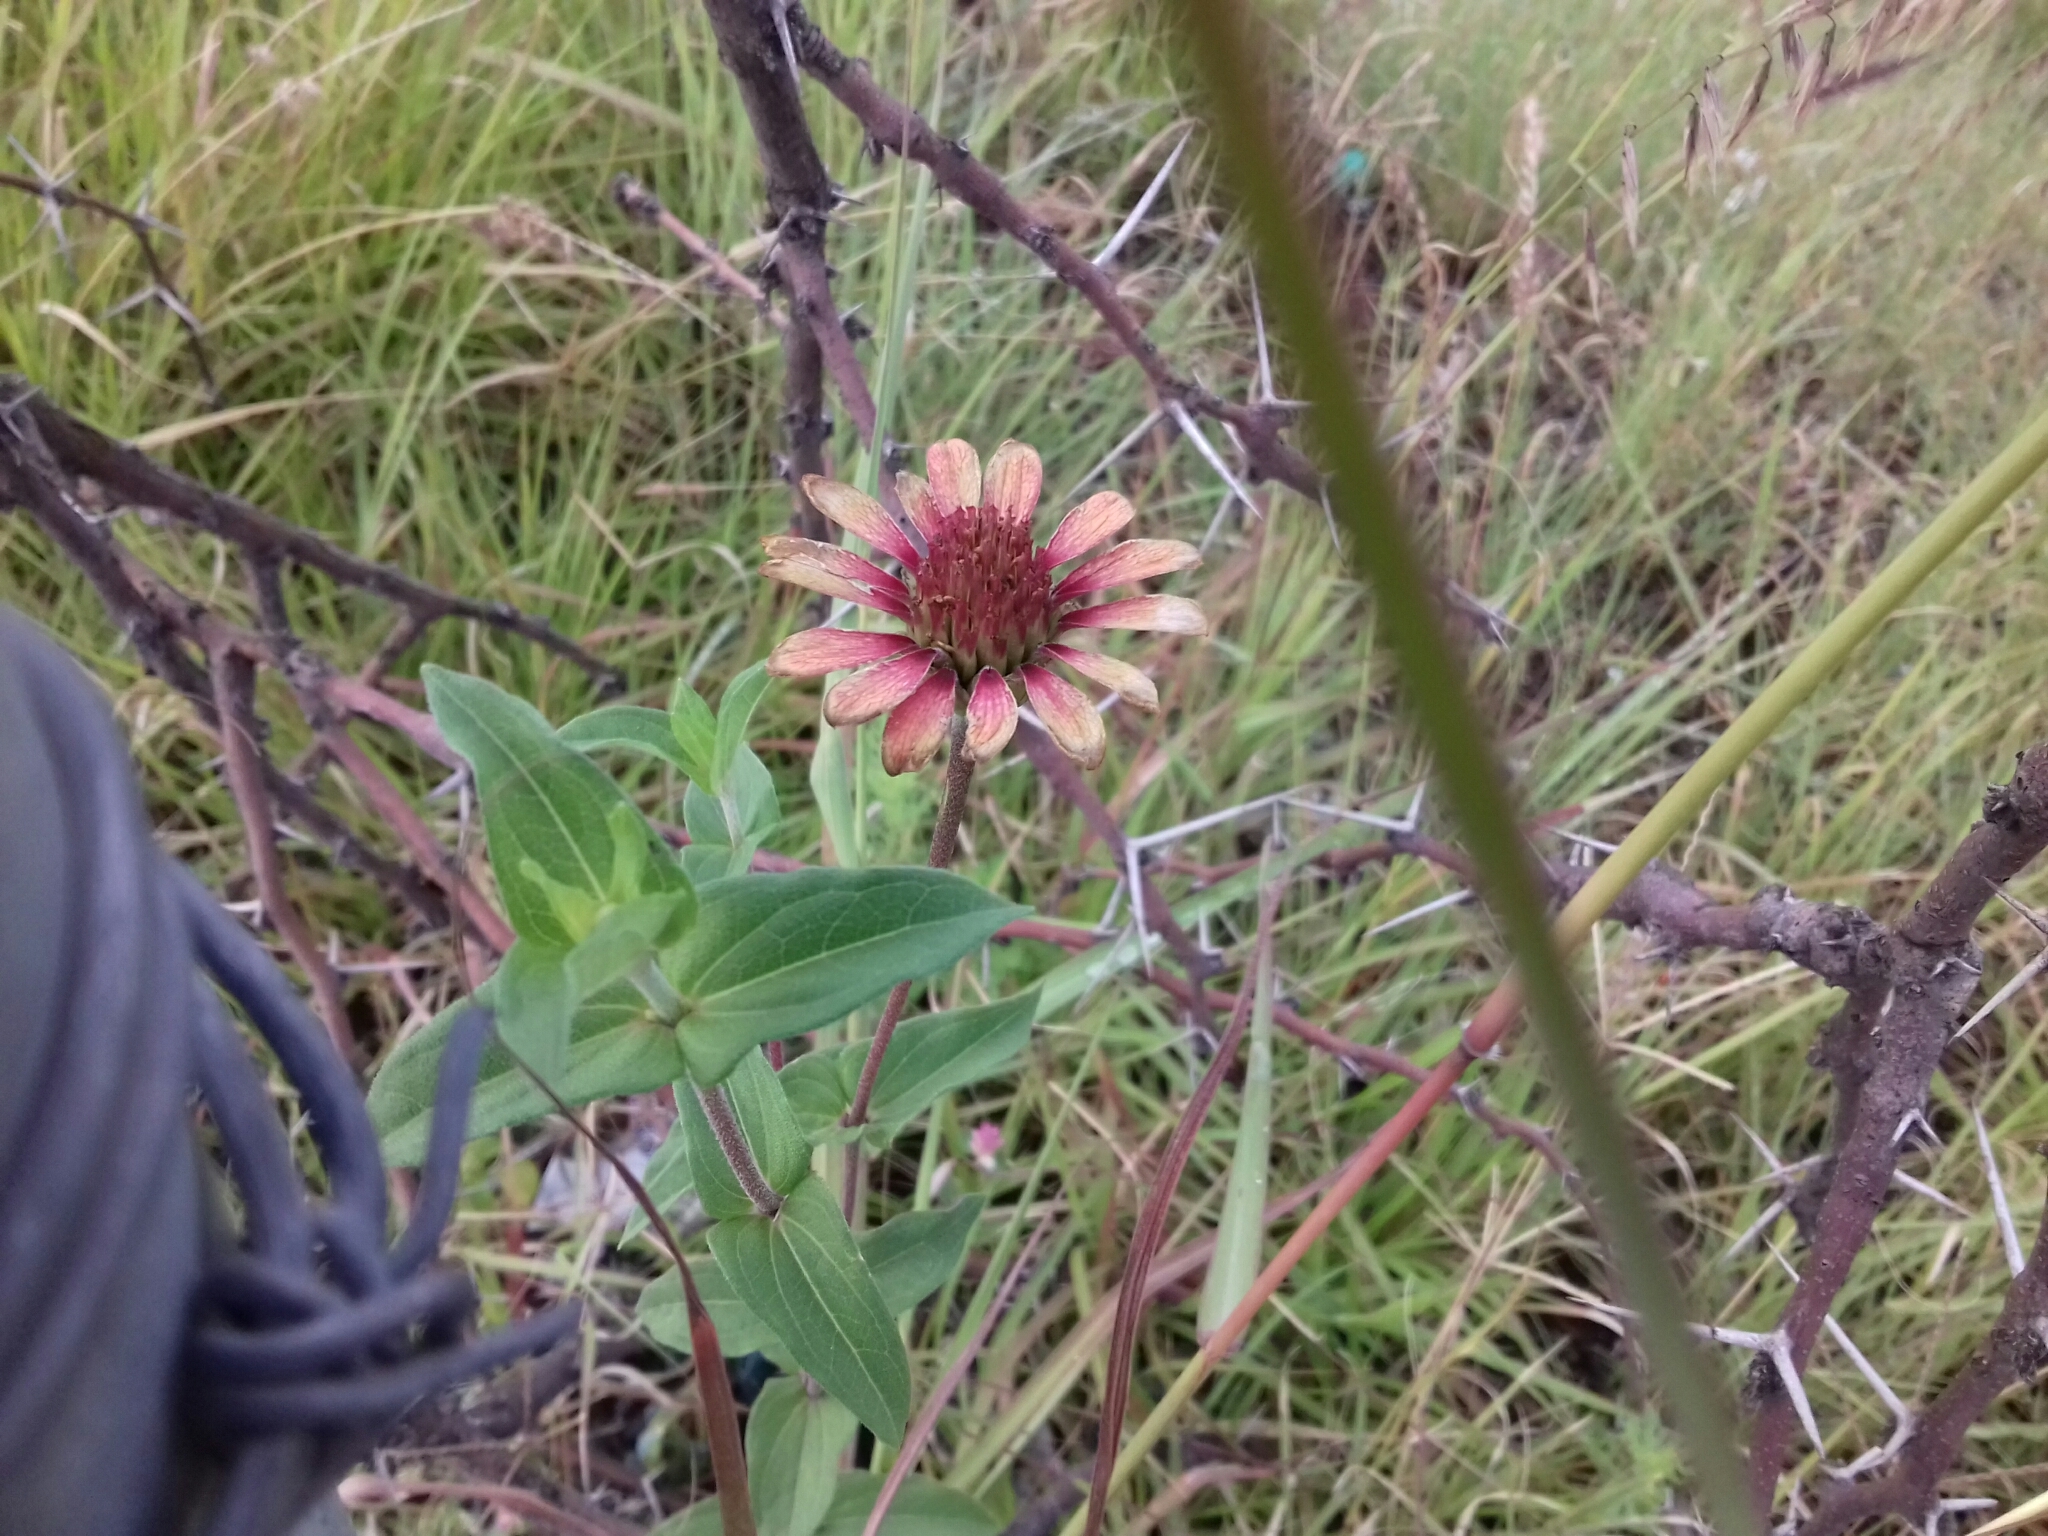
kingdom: Plantae
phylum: Tracheophyta
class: Magnoliopsida
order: Asterales
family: Asteraceae
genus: Zinnia
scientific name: Zinnia peruviana
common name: Peruvian zinnia
